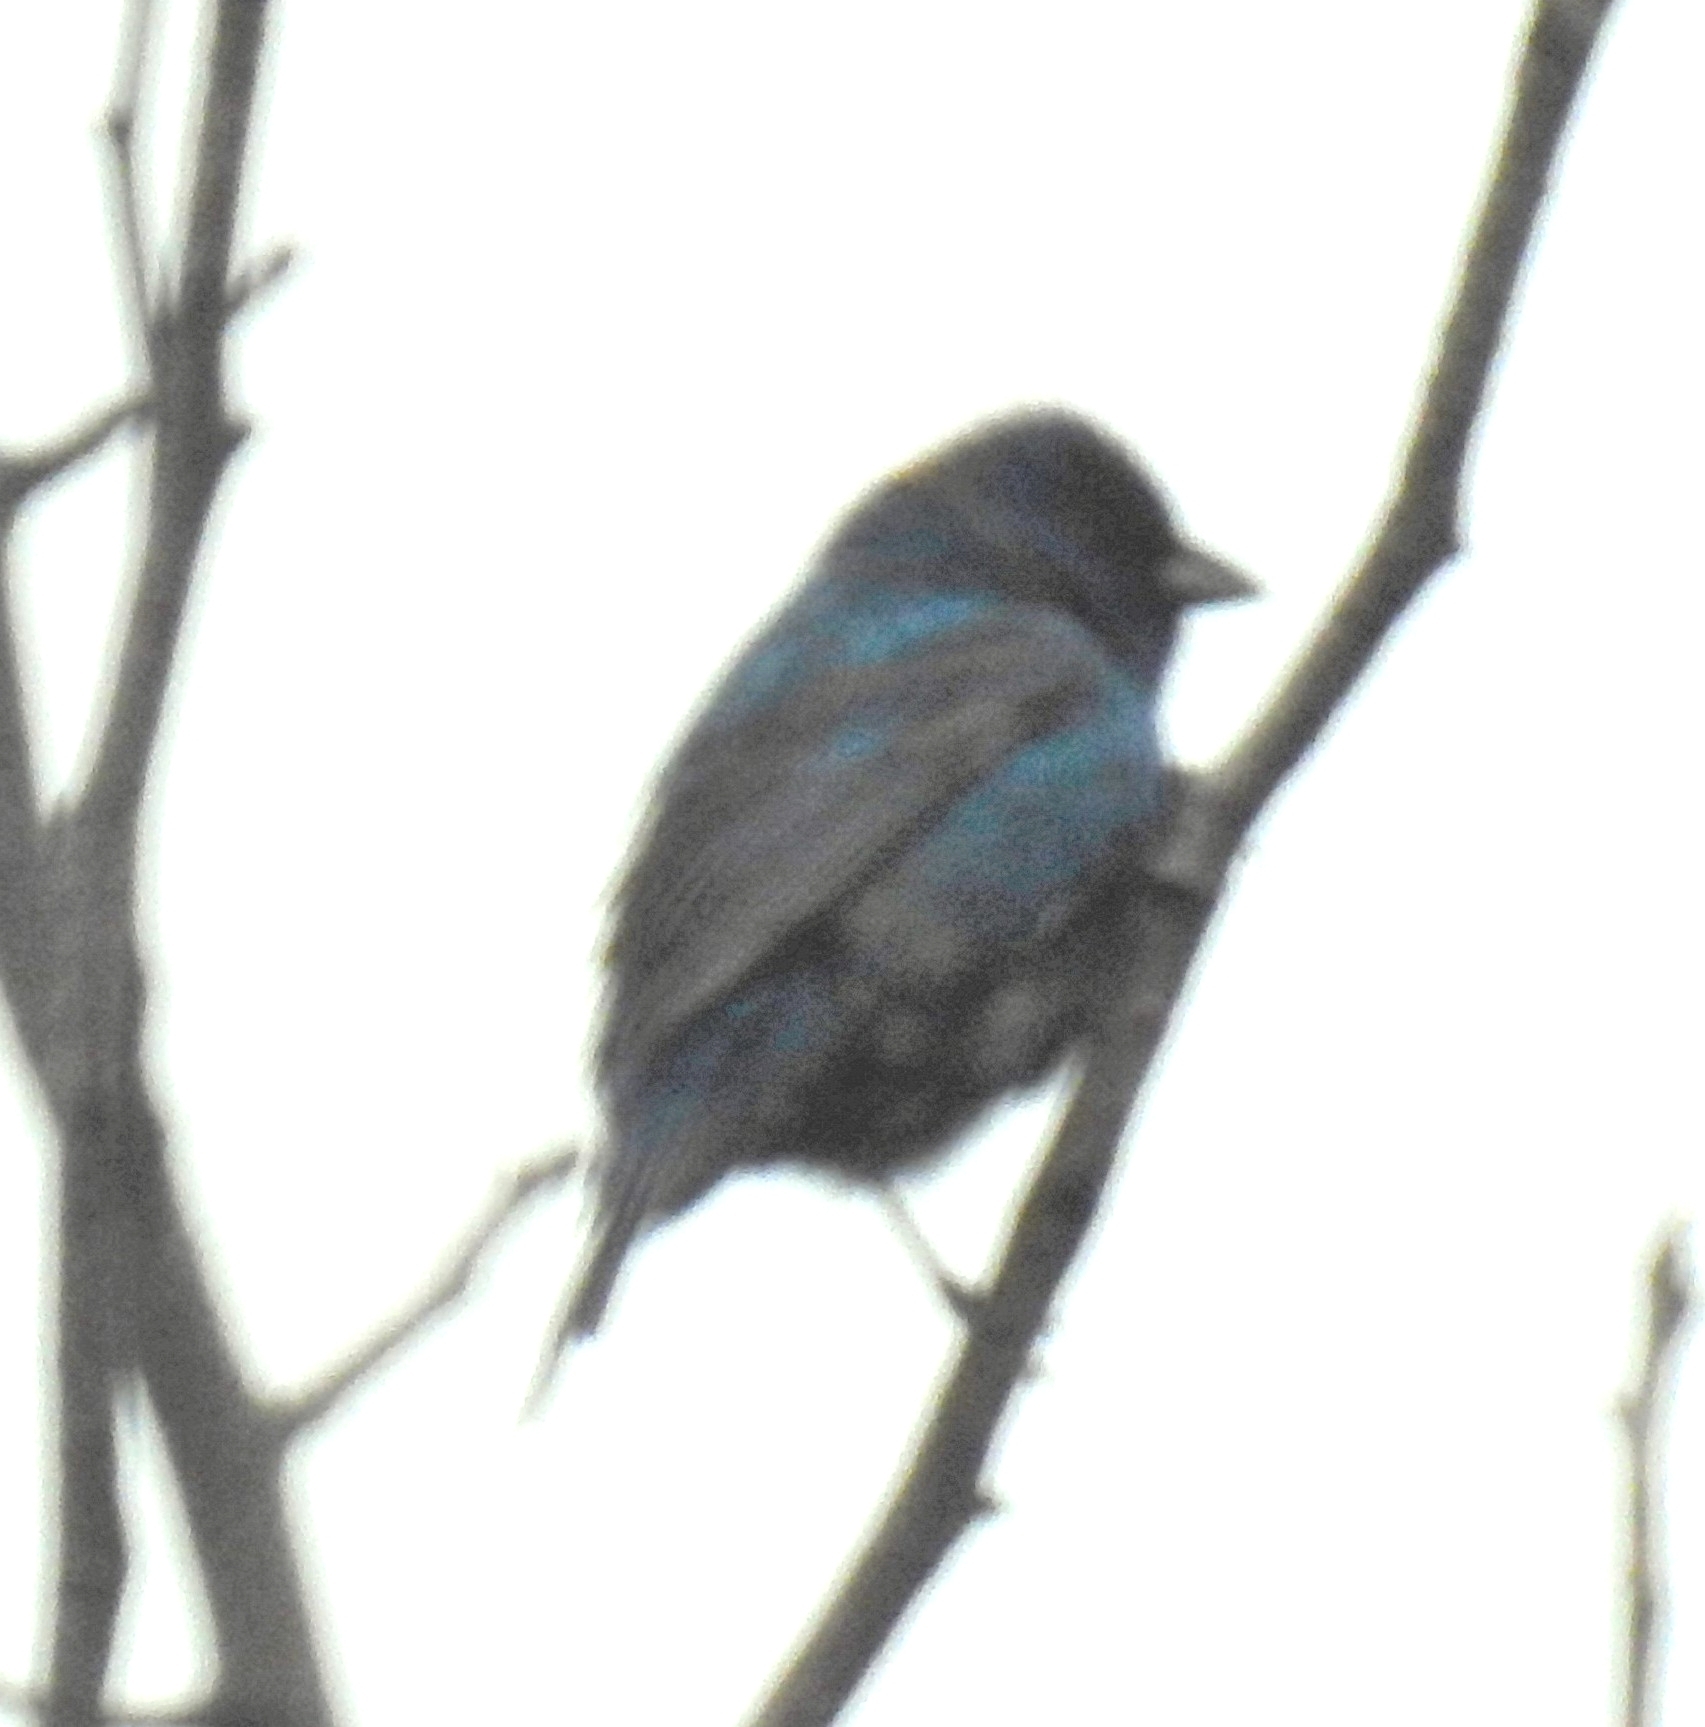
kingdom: Animalia
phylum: Chordata
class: Aves
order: Passeriformes
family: Cardinalidae
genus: Passerina
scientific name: Passerina cyanea
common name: Indigo bunting
